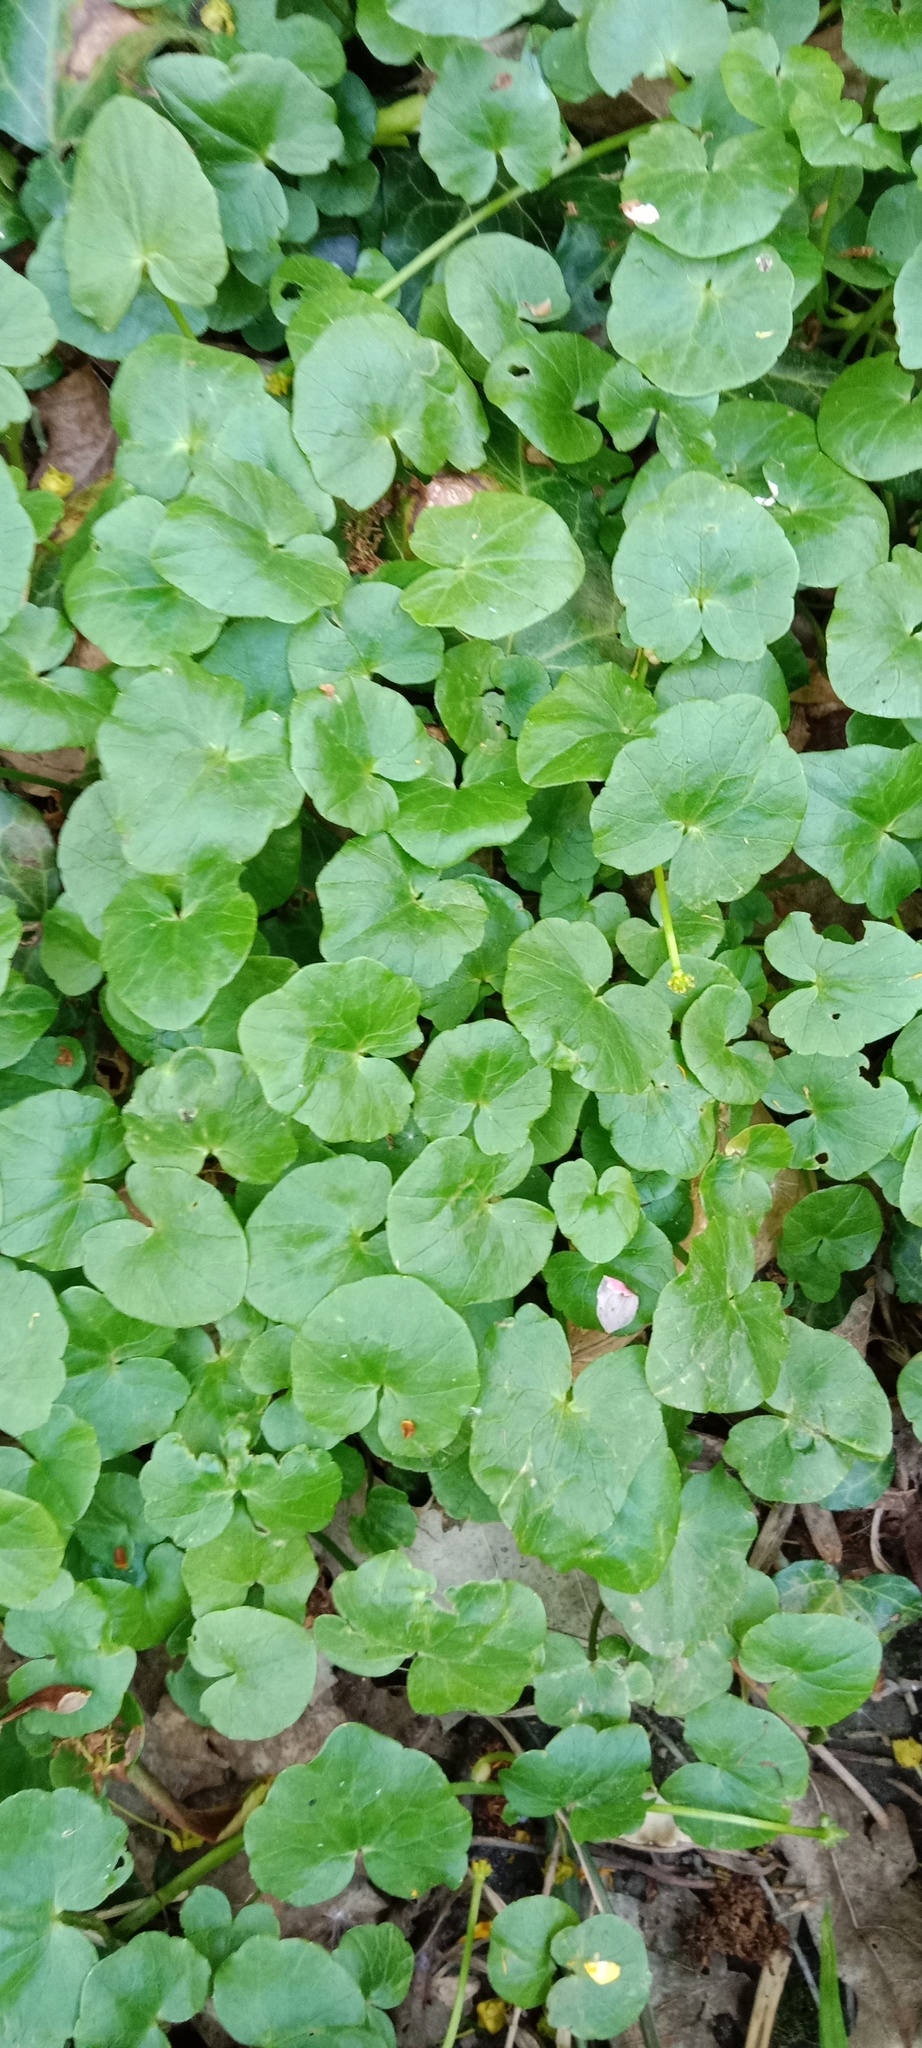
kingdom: Plantae
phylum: Tracheophyta
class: Magnoliopsida
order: Ranunculales
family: Ranunculaceae
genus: Ficaria
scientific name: Ficaria verna
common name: Lesser celandine
